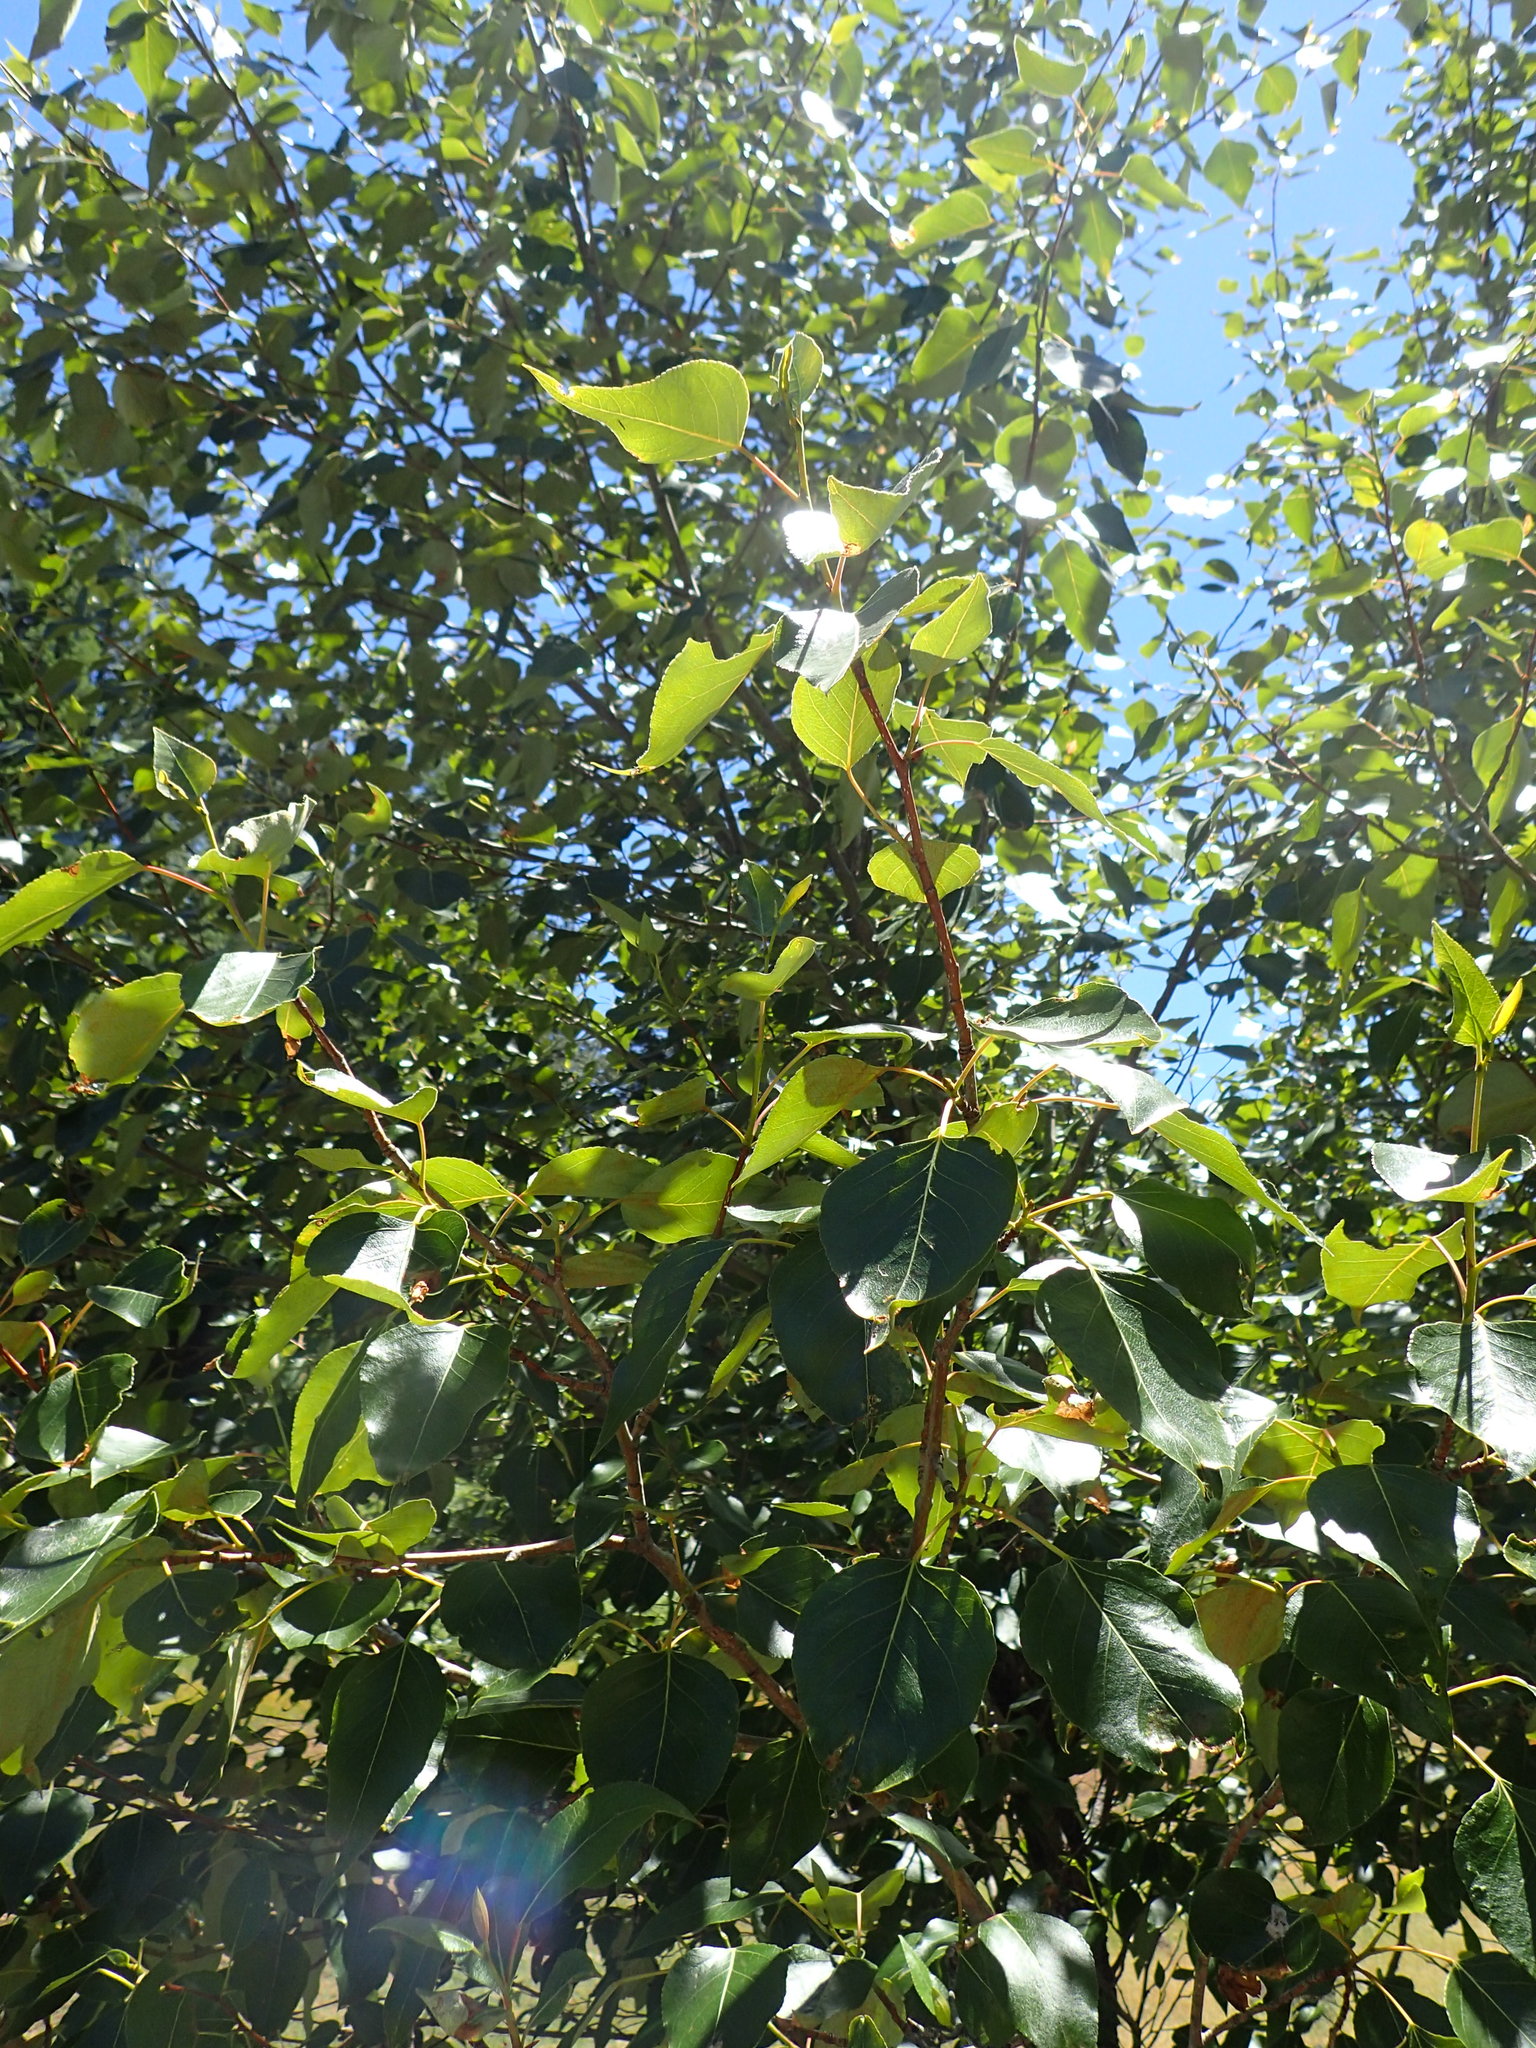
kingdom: Plantae
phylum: Tracheophyta
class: Magnoliopsida
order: Malpighiales
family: Salicaceae
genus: Populus
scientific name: Populus trichocarpa
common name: Black cottonwood
